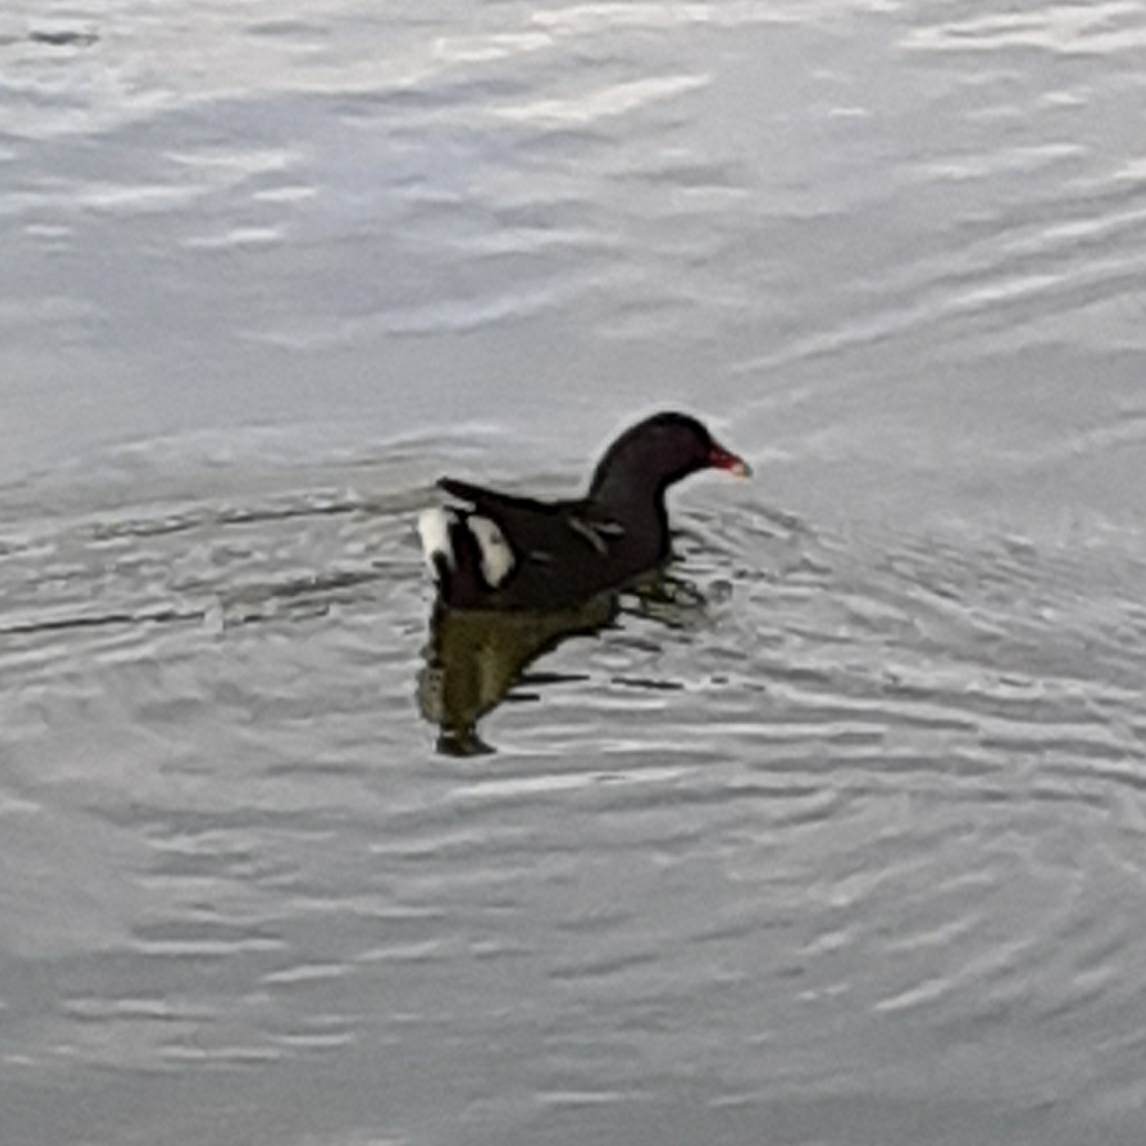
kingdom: Animalia
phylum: Chordata
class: Aves
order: Gruiformes
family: Rallidae
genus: Gallinula
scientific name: Gallinula chloropus
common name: Common moorhen
